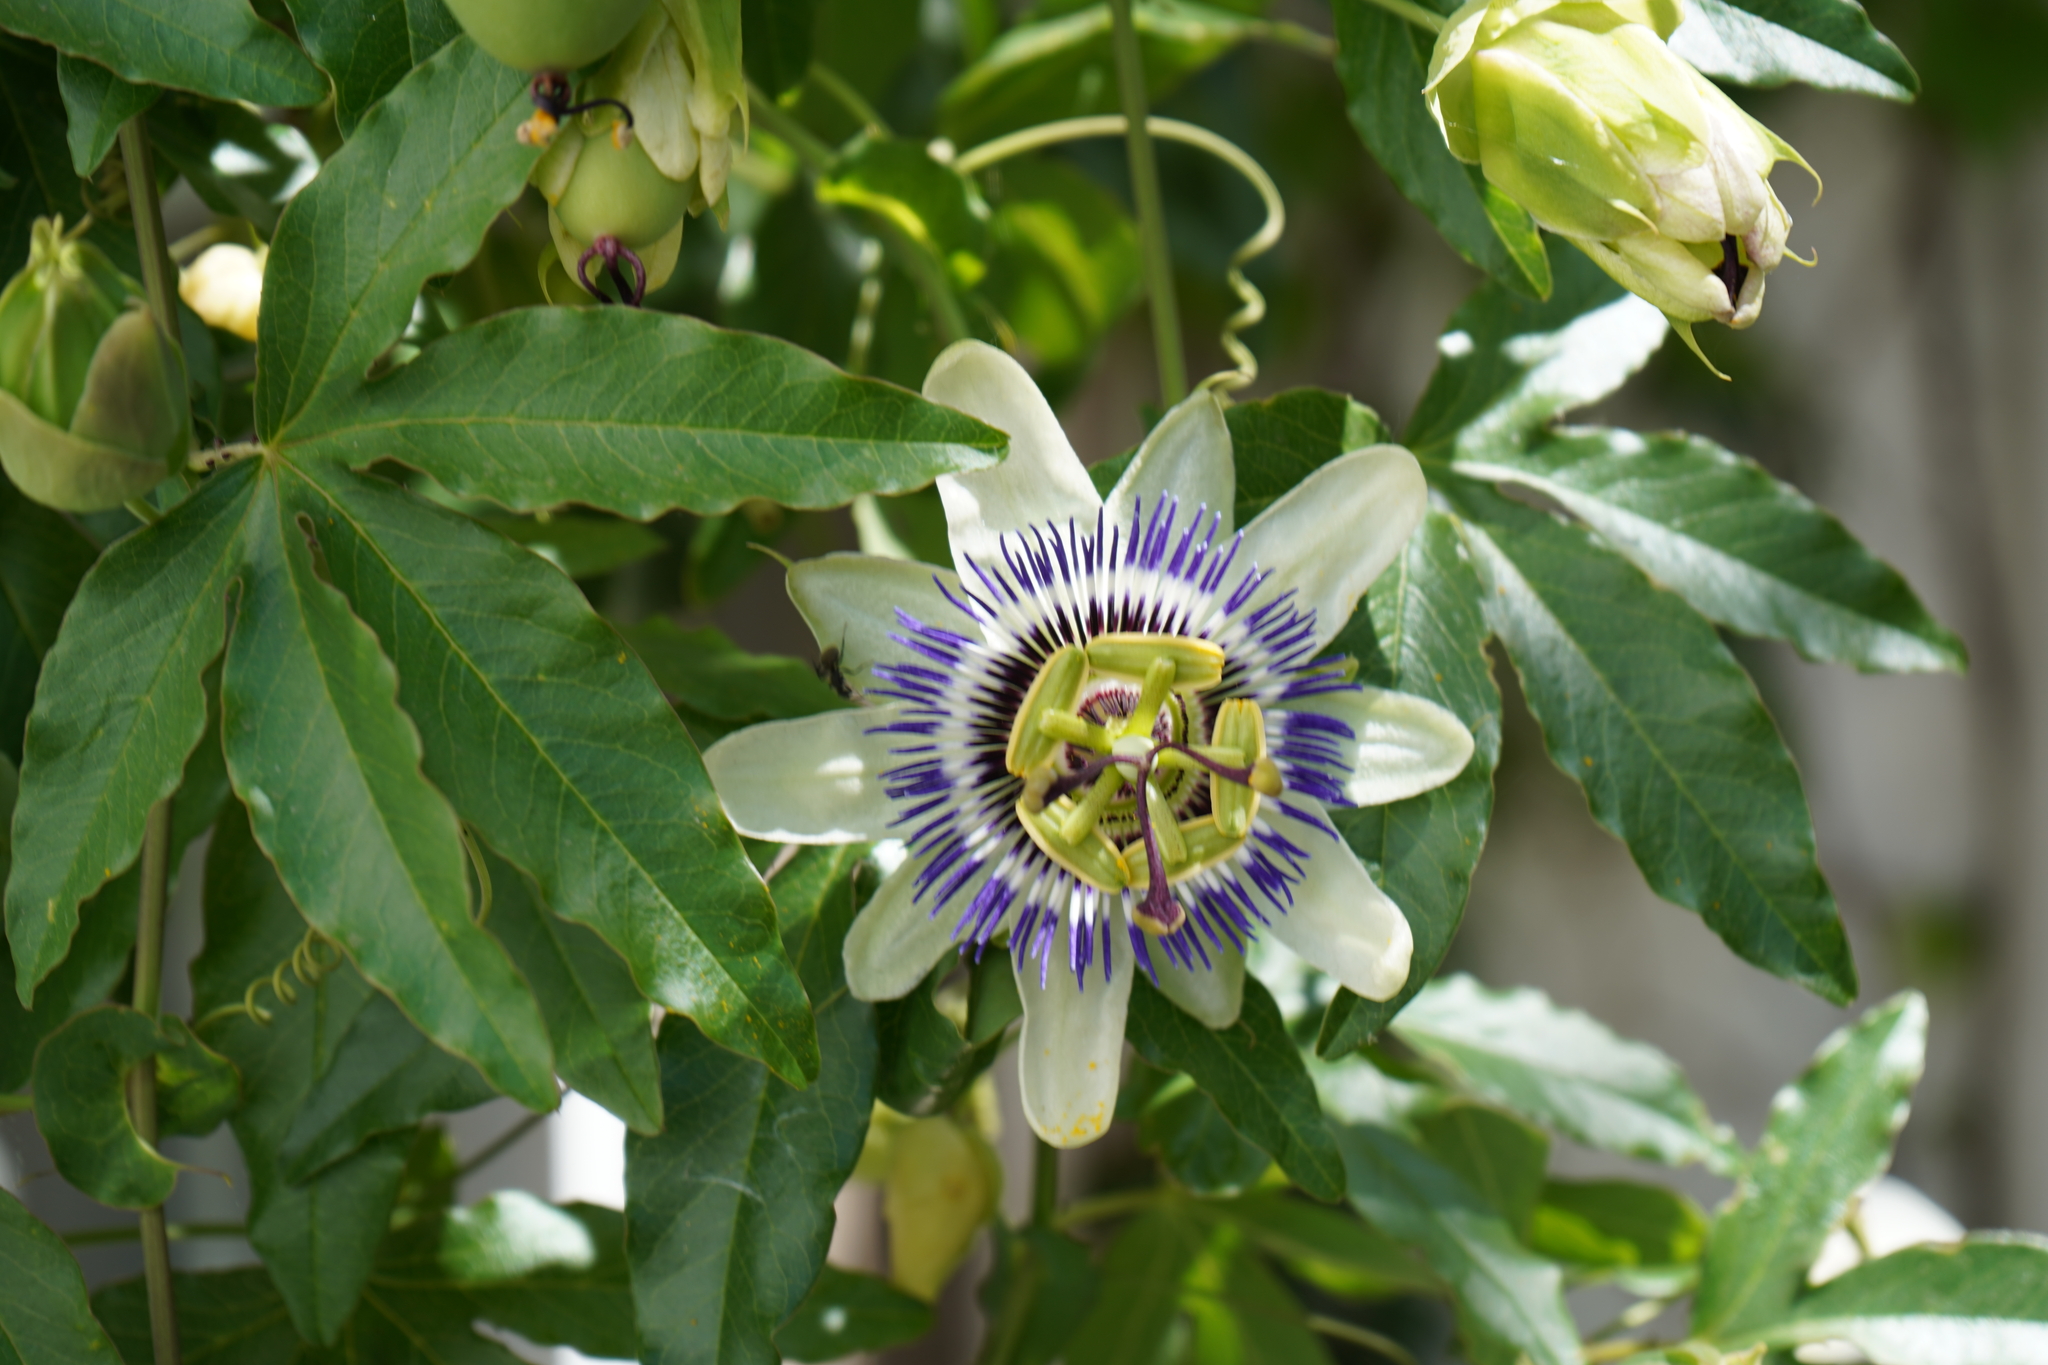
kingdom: Plantae
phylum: Tracheophyta
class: Magnoliopsida
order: Malpighiales
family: Passifloraceae
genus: Passiflora
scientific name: Passiflora caerulea
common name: Blue passionflower
